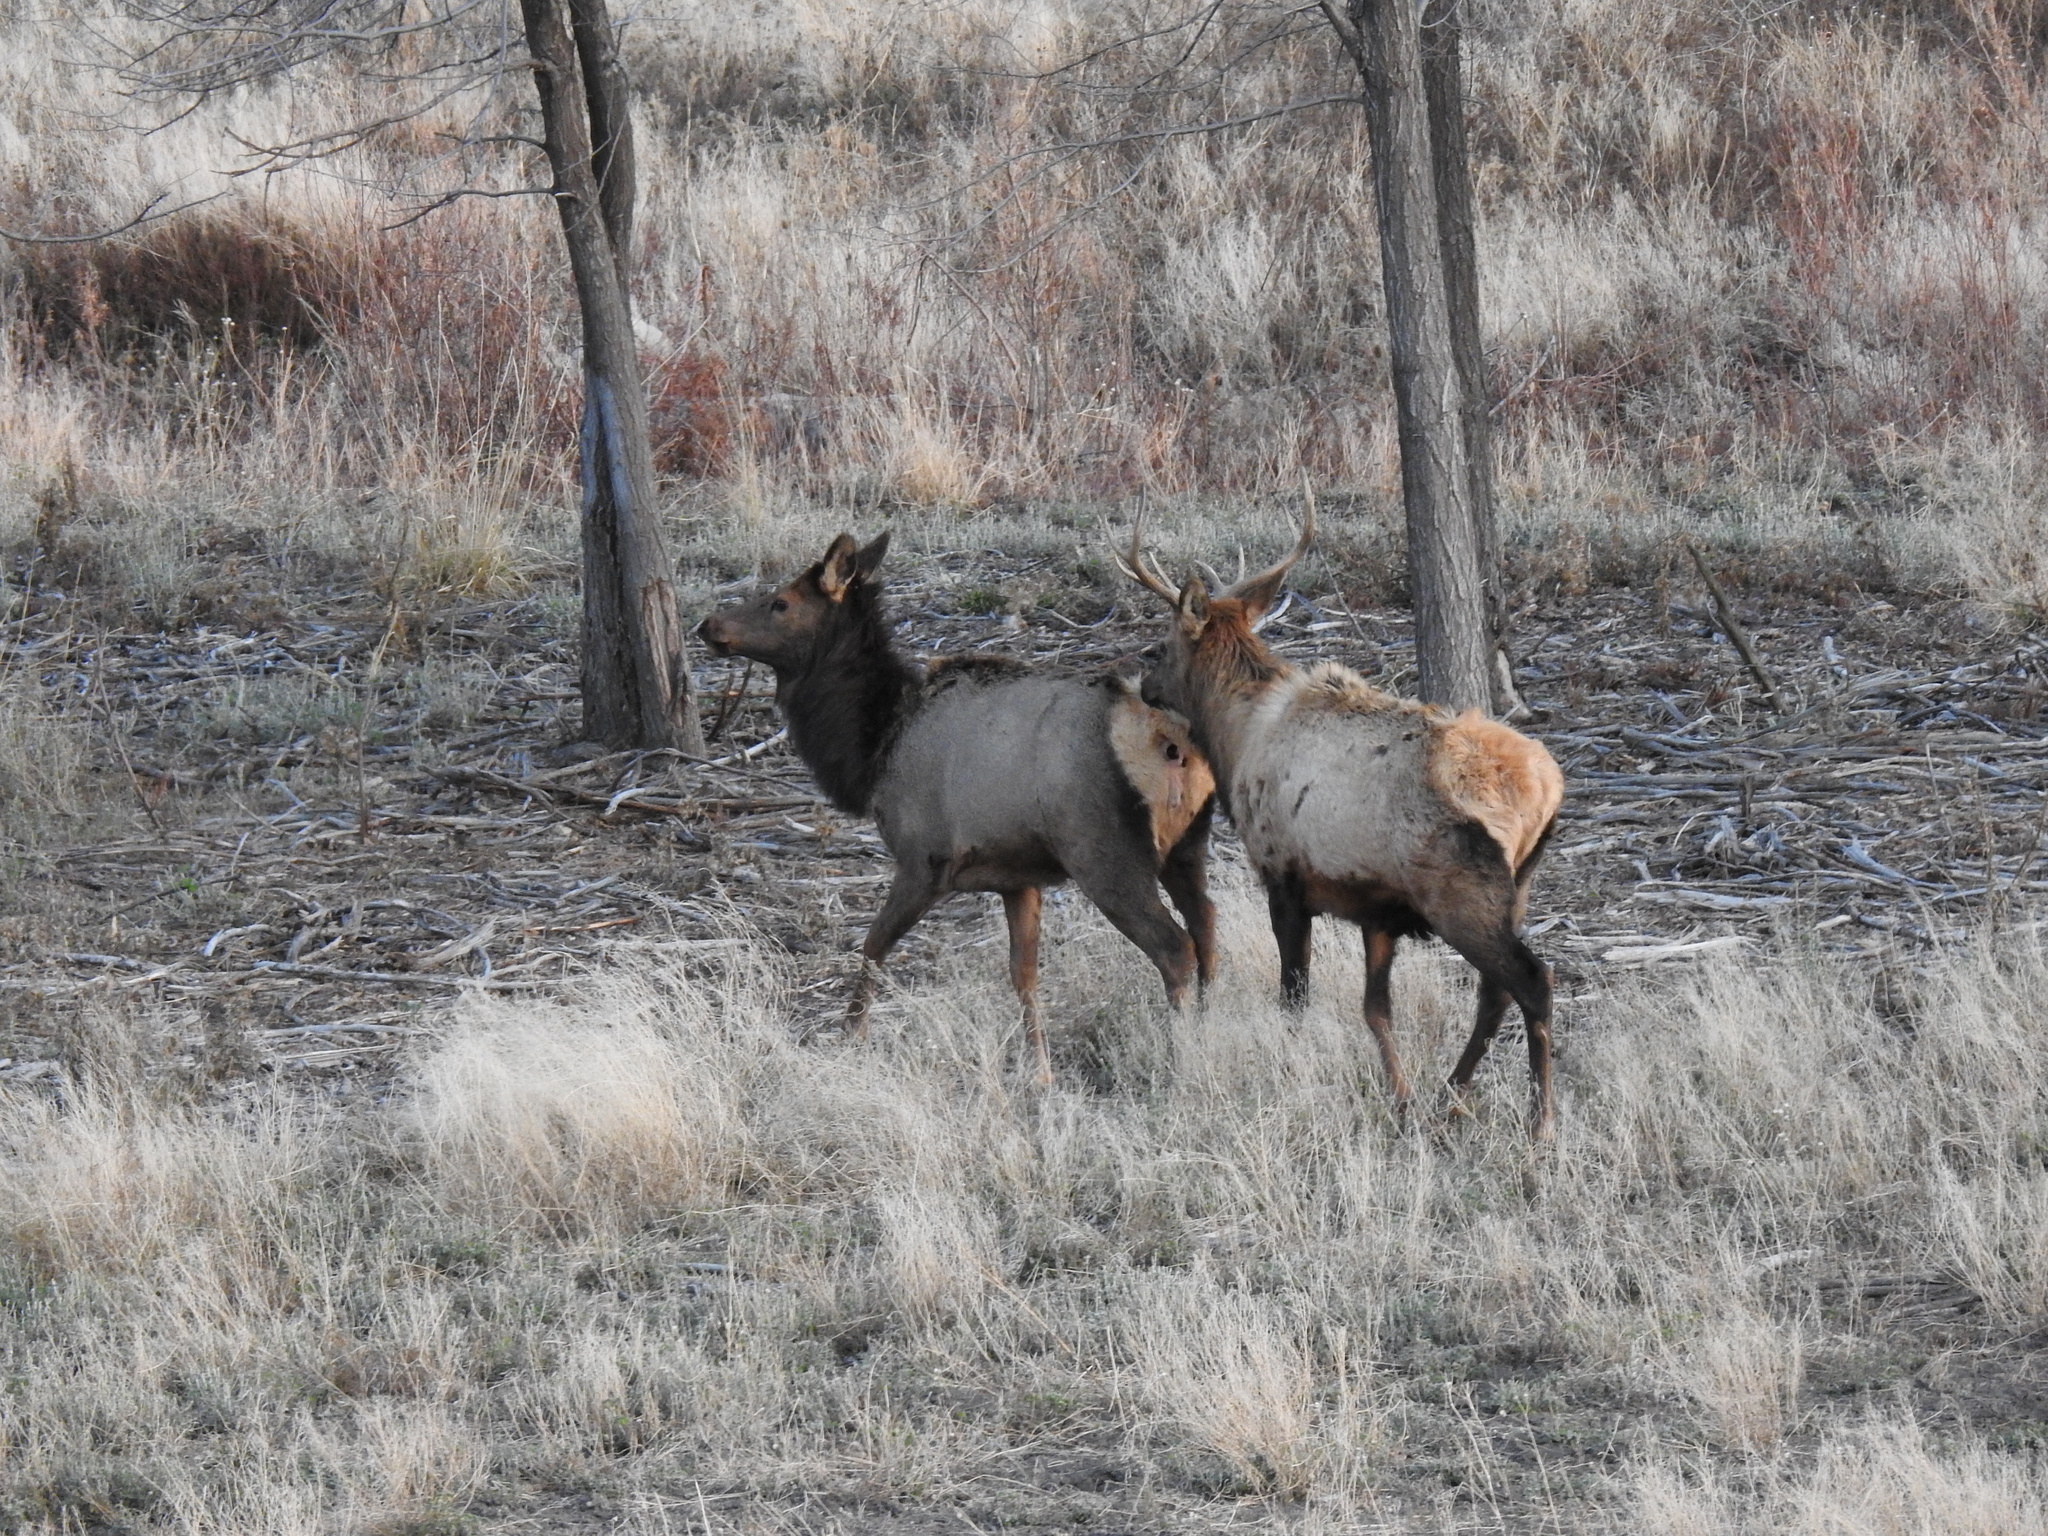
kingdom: Animalia
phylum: Chordata
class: Mammalia
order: Artiodactyla
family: Cervidae
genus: Cervus
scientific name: Cervus elaphus
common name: Red deer
